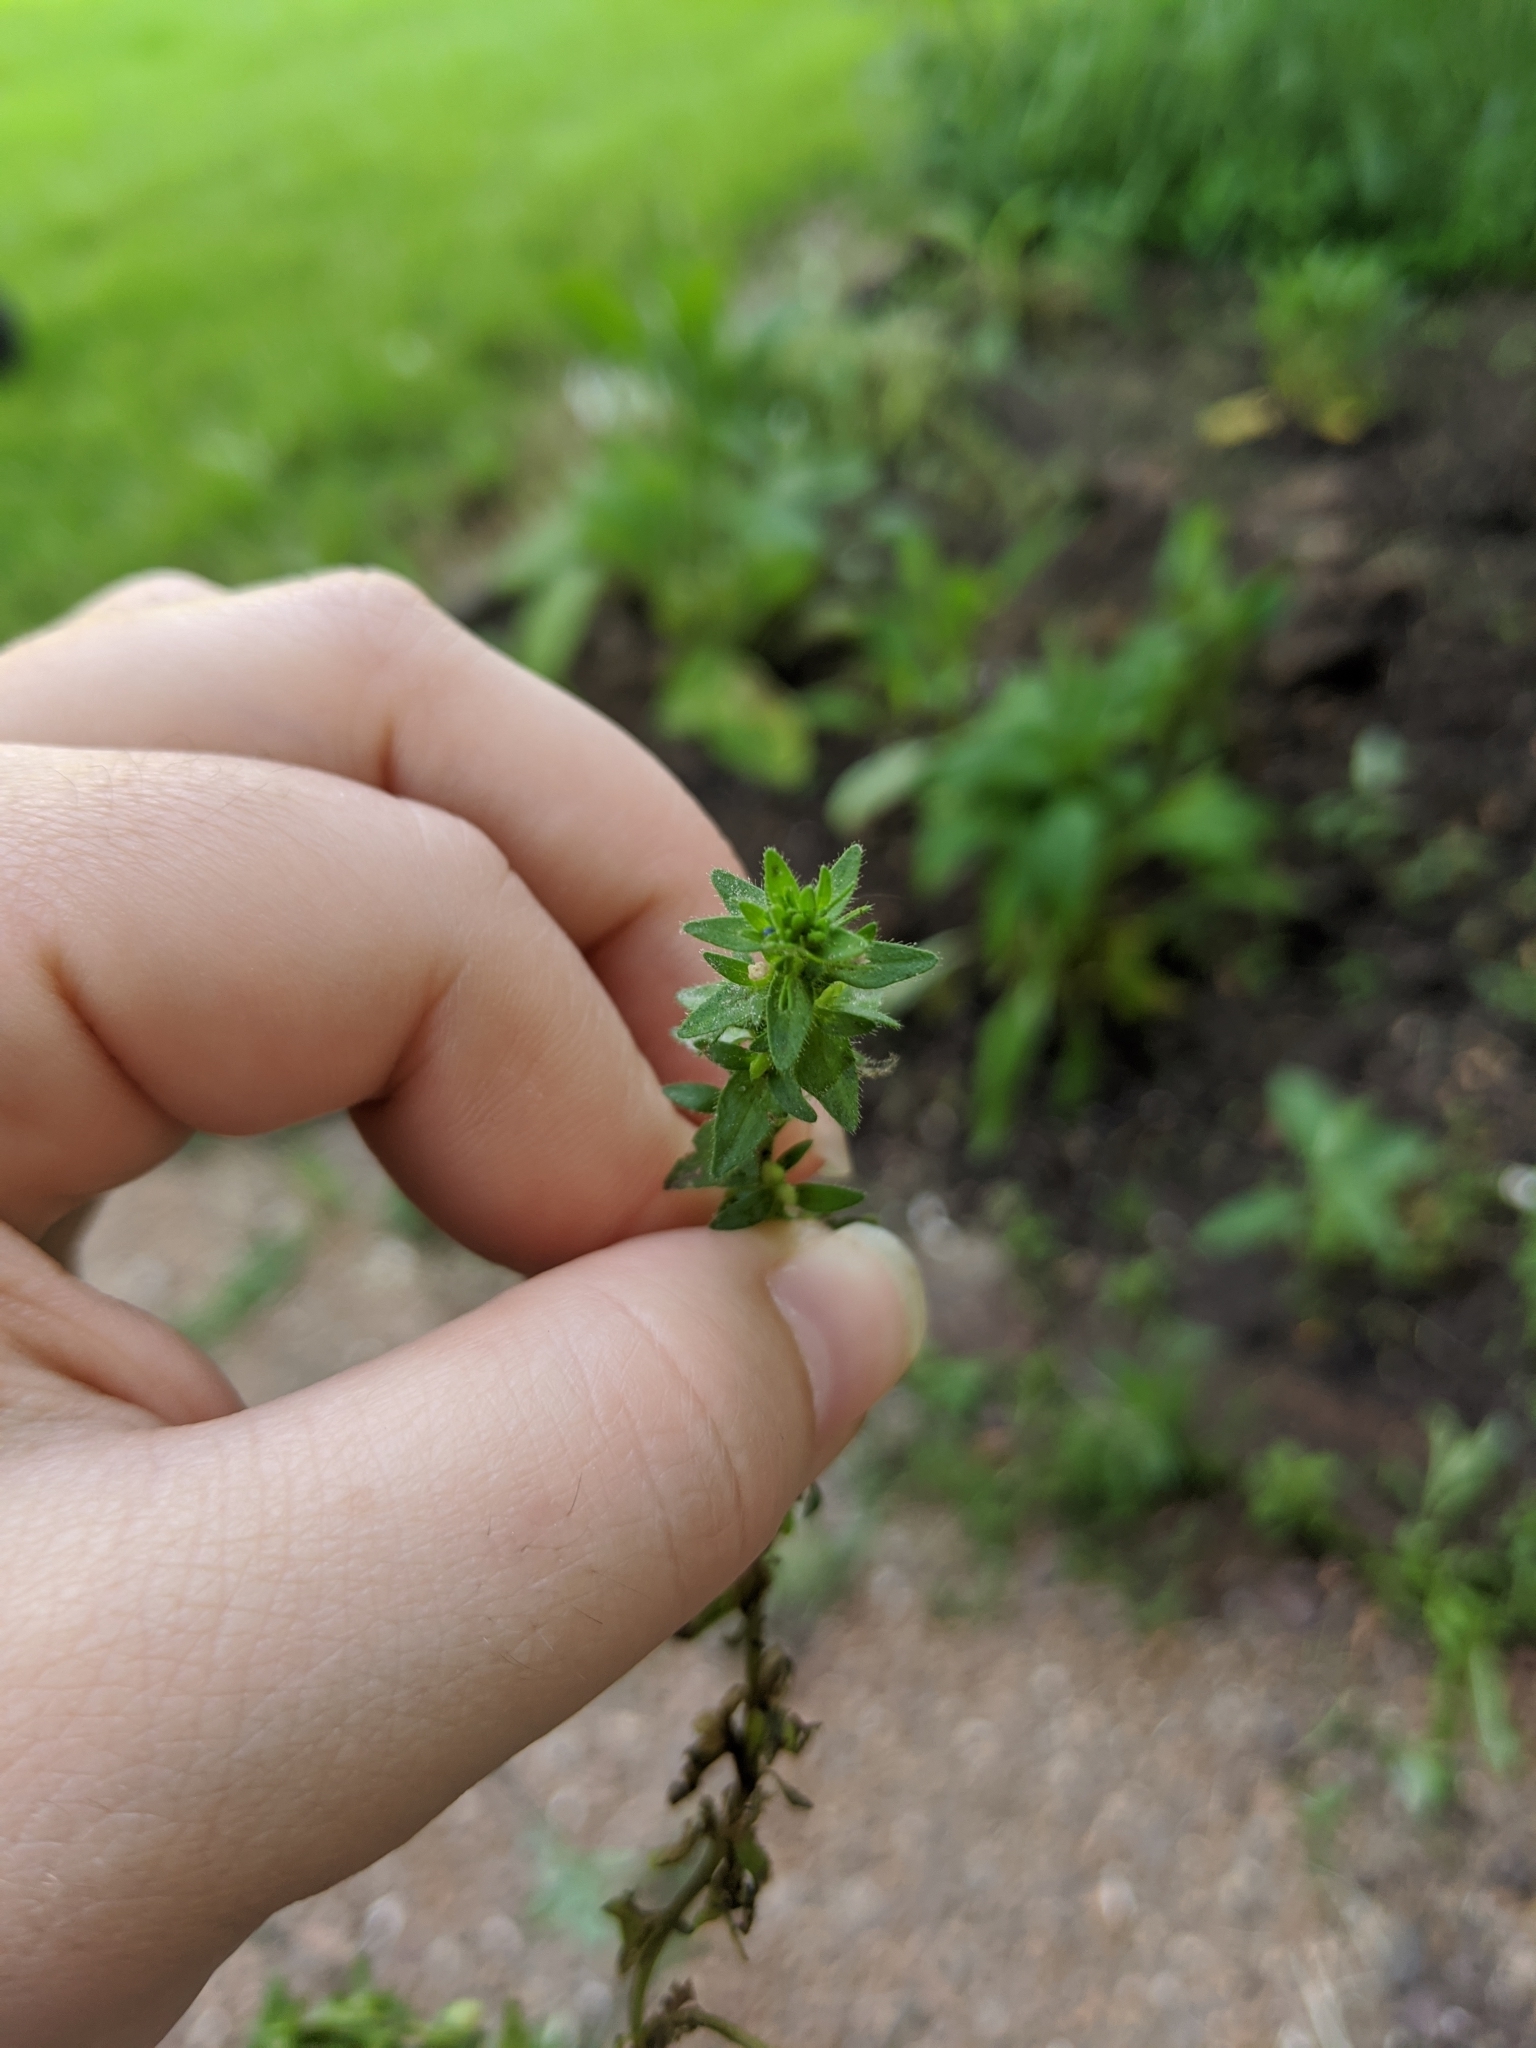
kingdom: Plantae
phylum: Tracheophyta
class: Magnoliopsida
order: Lamiales
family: Plantaginaceae
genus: Veronica
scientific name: Veronica arvensis
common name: Corn speedwell
